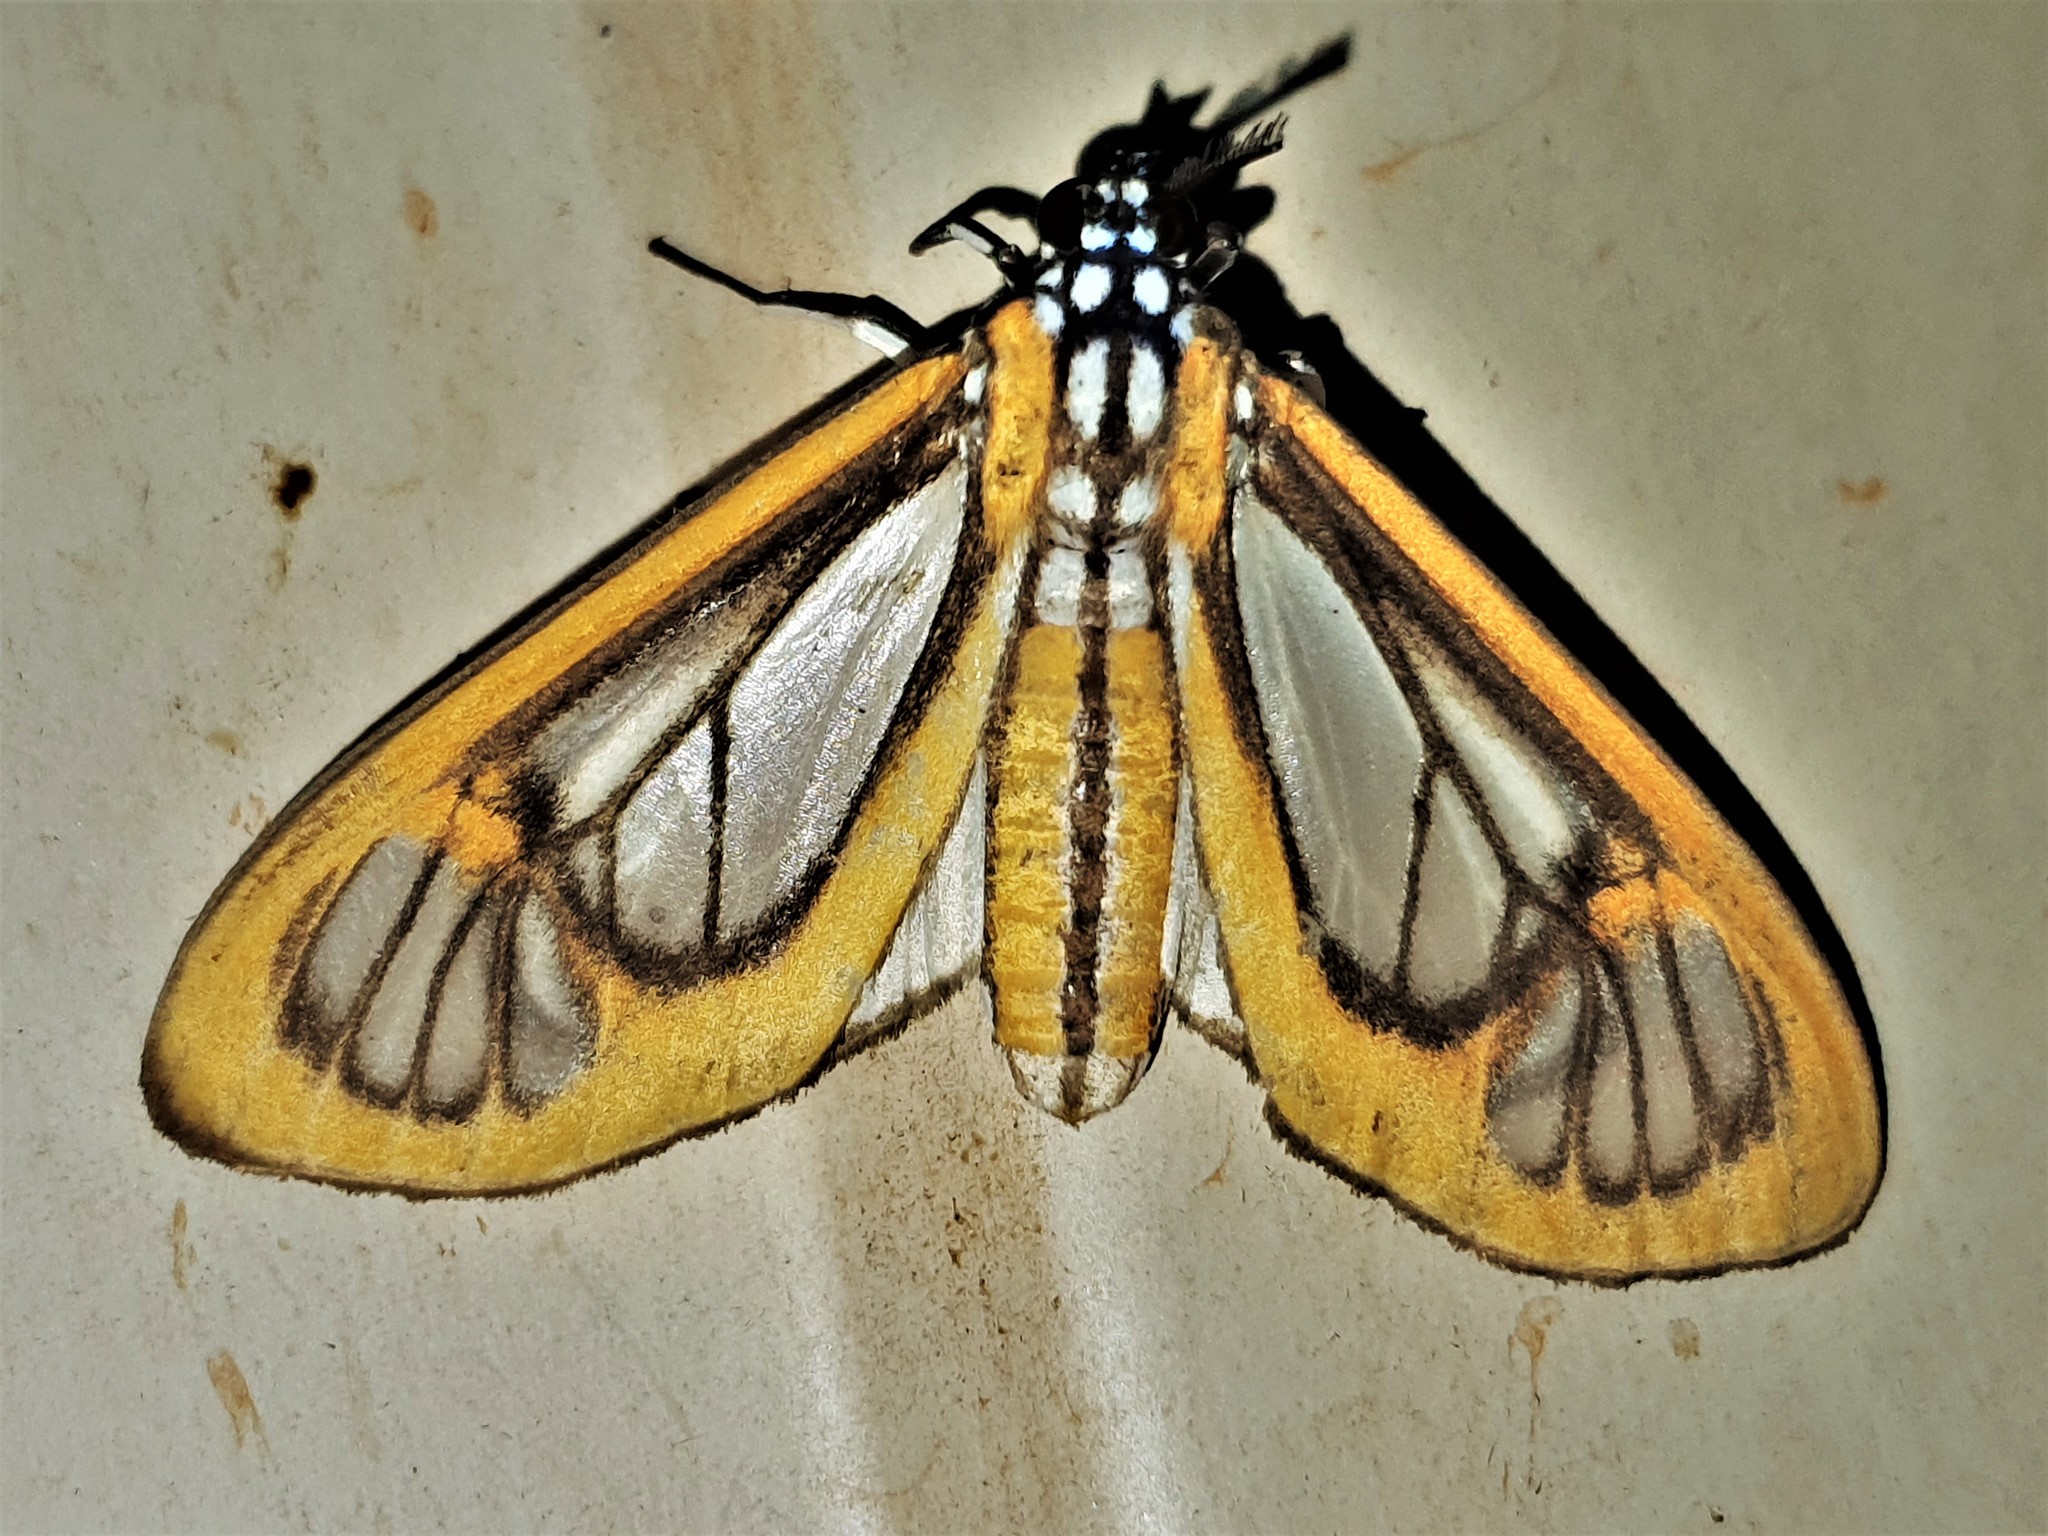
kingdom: Animalia
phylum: Arthropoda
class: Insecta
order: Lepidoptera
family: Erebidae
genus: Hyalurga
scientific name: Hyalurga sixola
